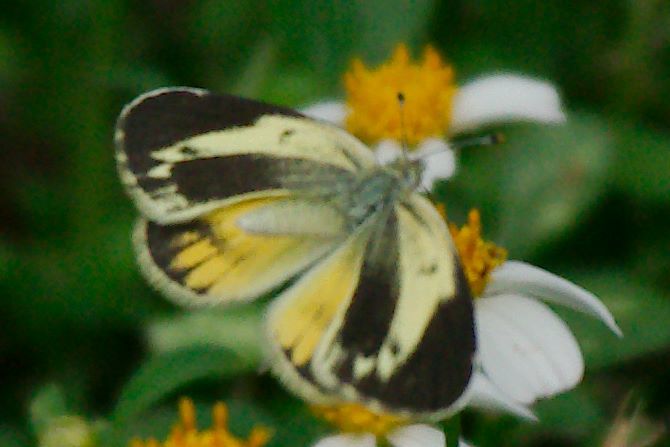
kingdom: Animalia
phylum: Arthropoda
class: Insecta
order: Lepidoptera
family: Pieridae
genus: Nathalis
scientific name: Nathalis iole
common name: Dainty sulphur
